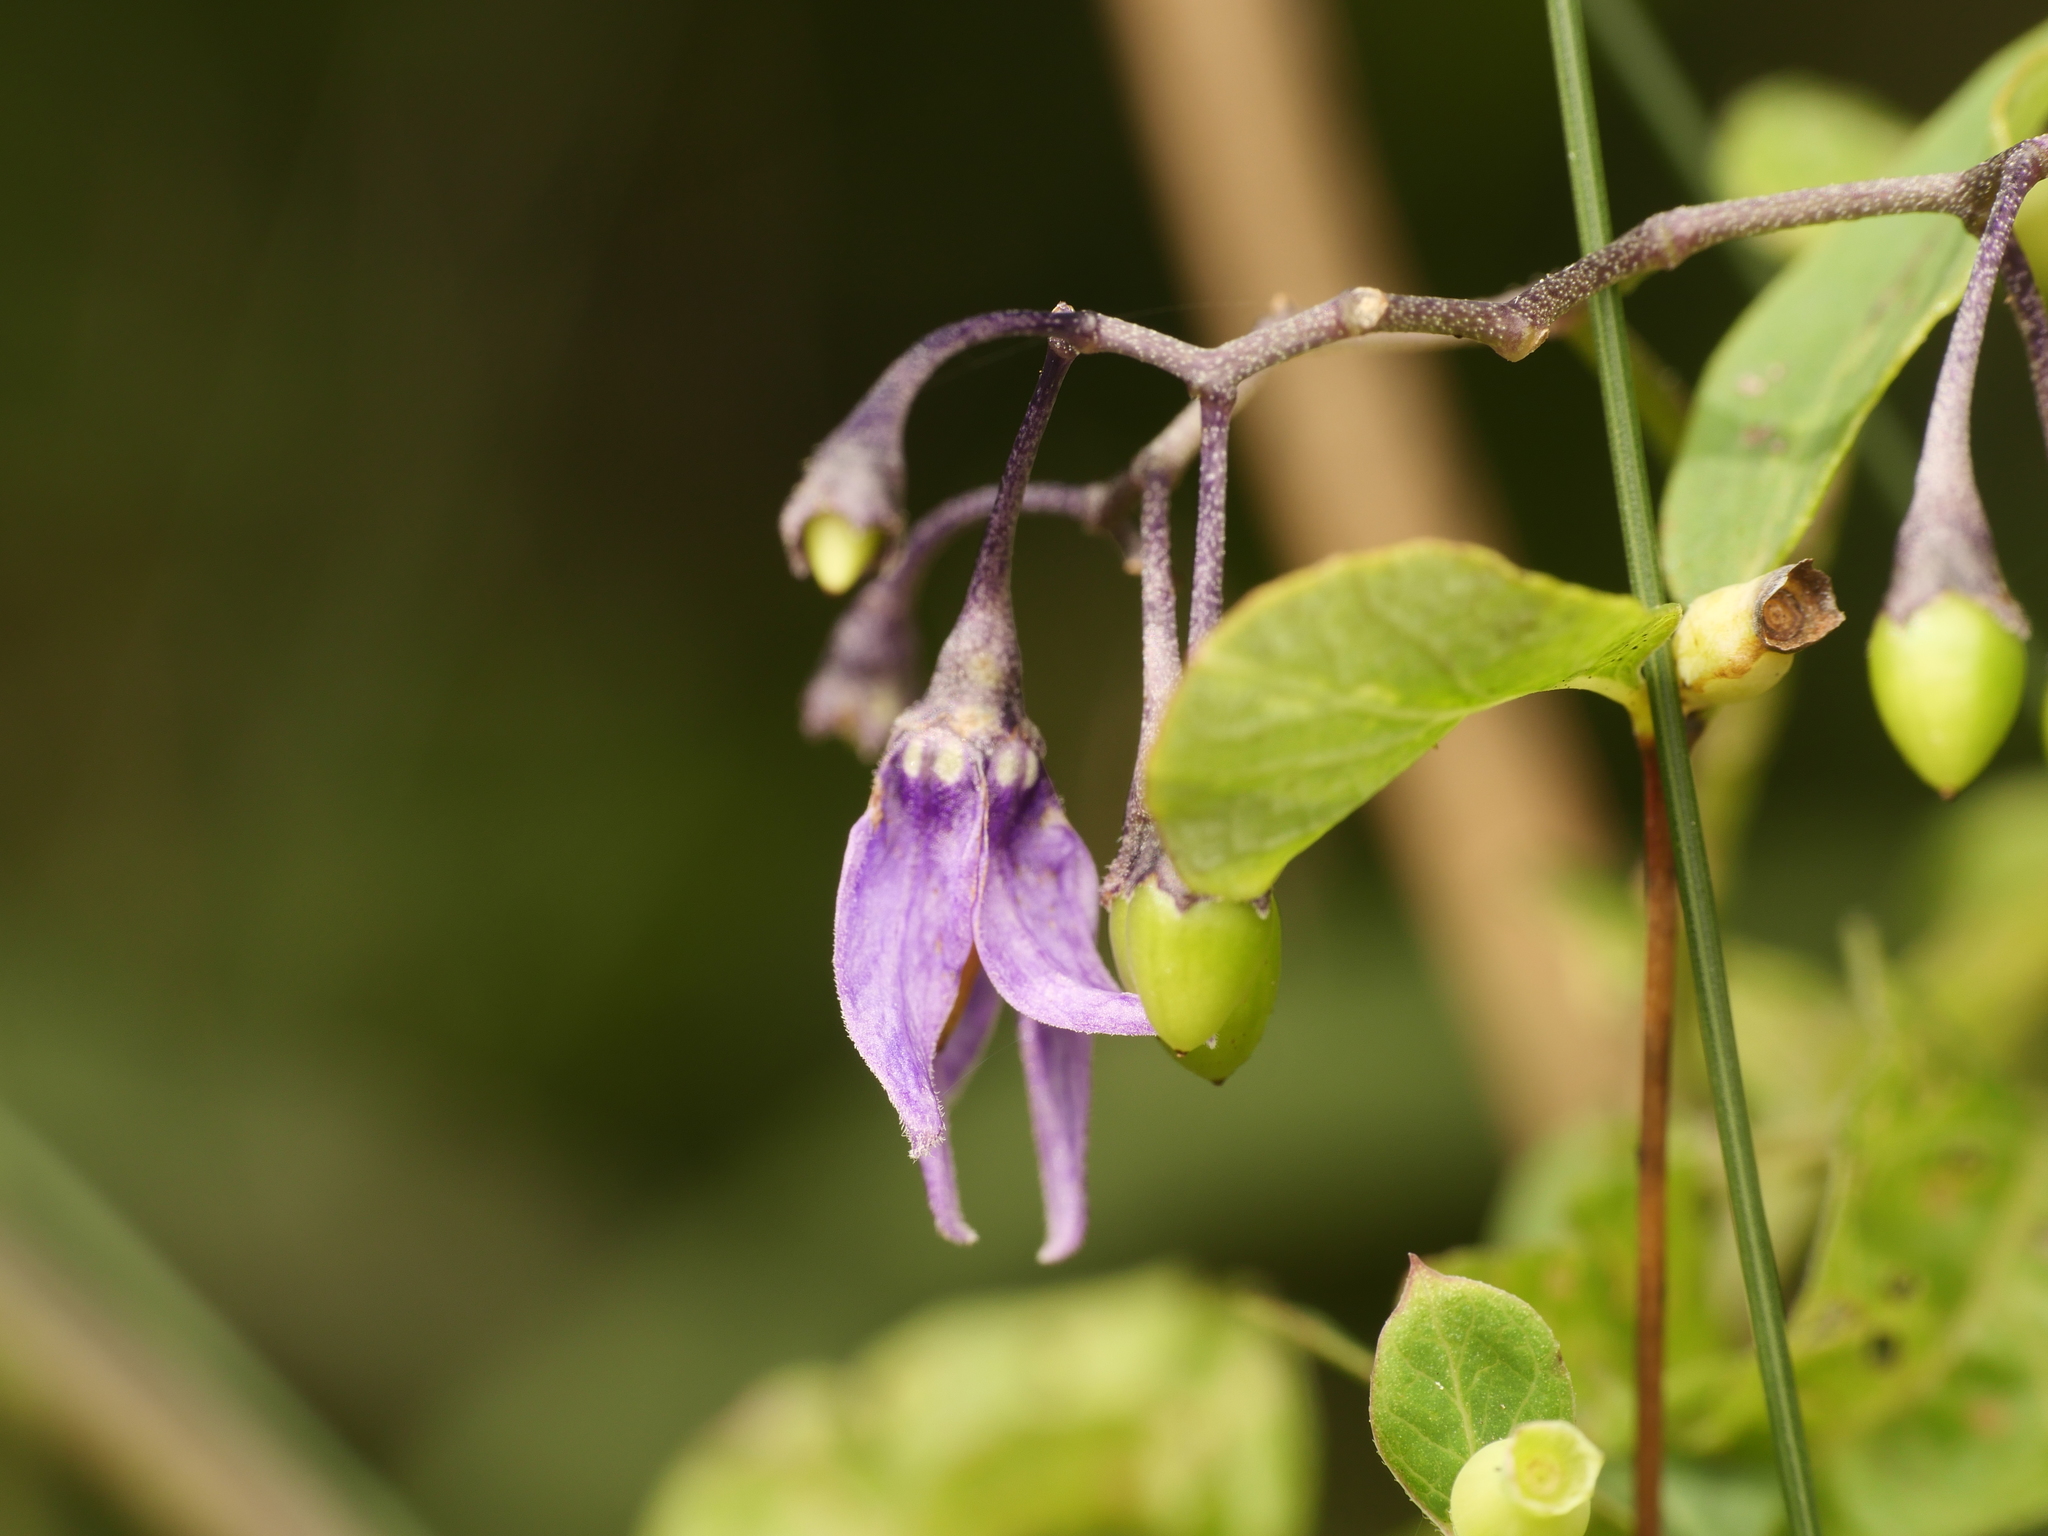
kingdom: Plantae
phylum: Tracheophyta
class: Magnoliopsida
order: Solanales
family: Solanaceae
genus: Solanum
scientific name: Solanum dulcamara
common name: Climbing nightshade
